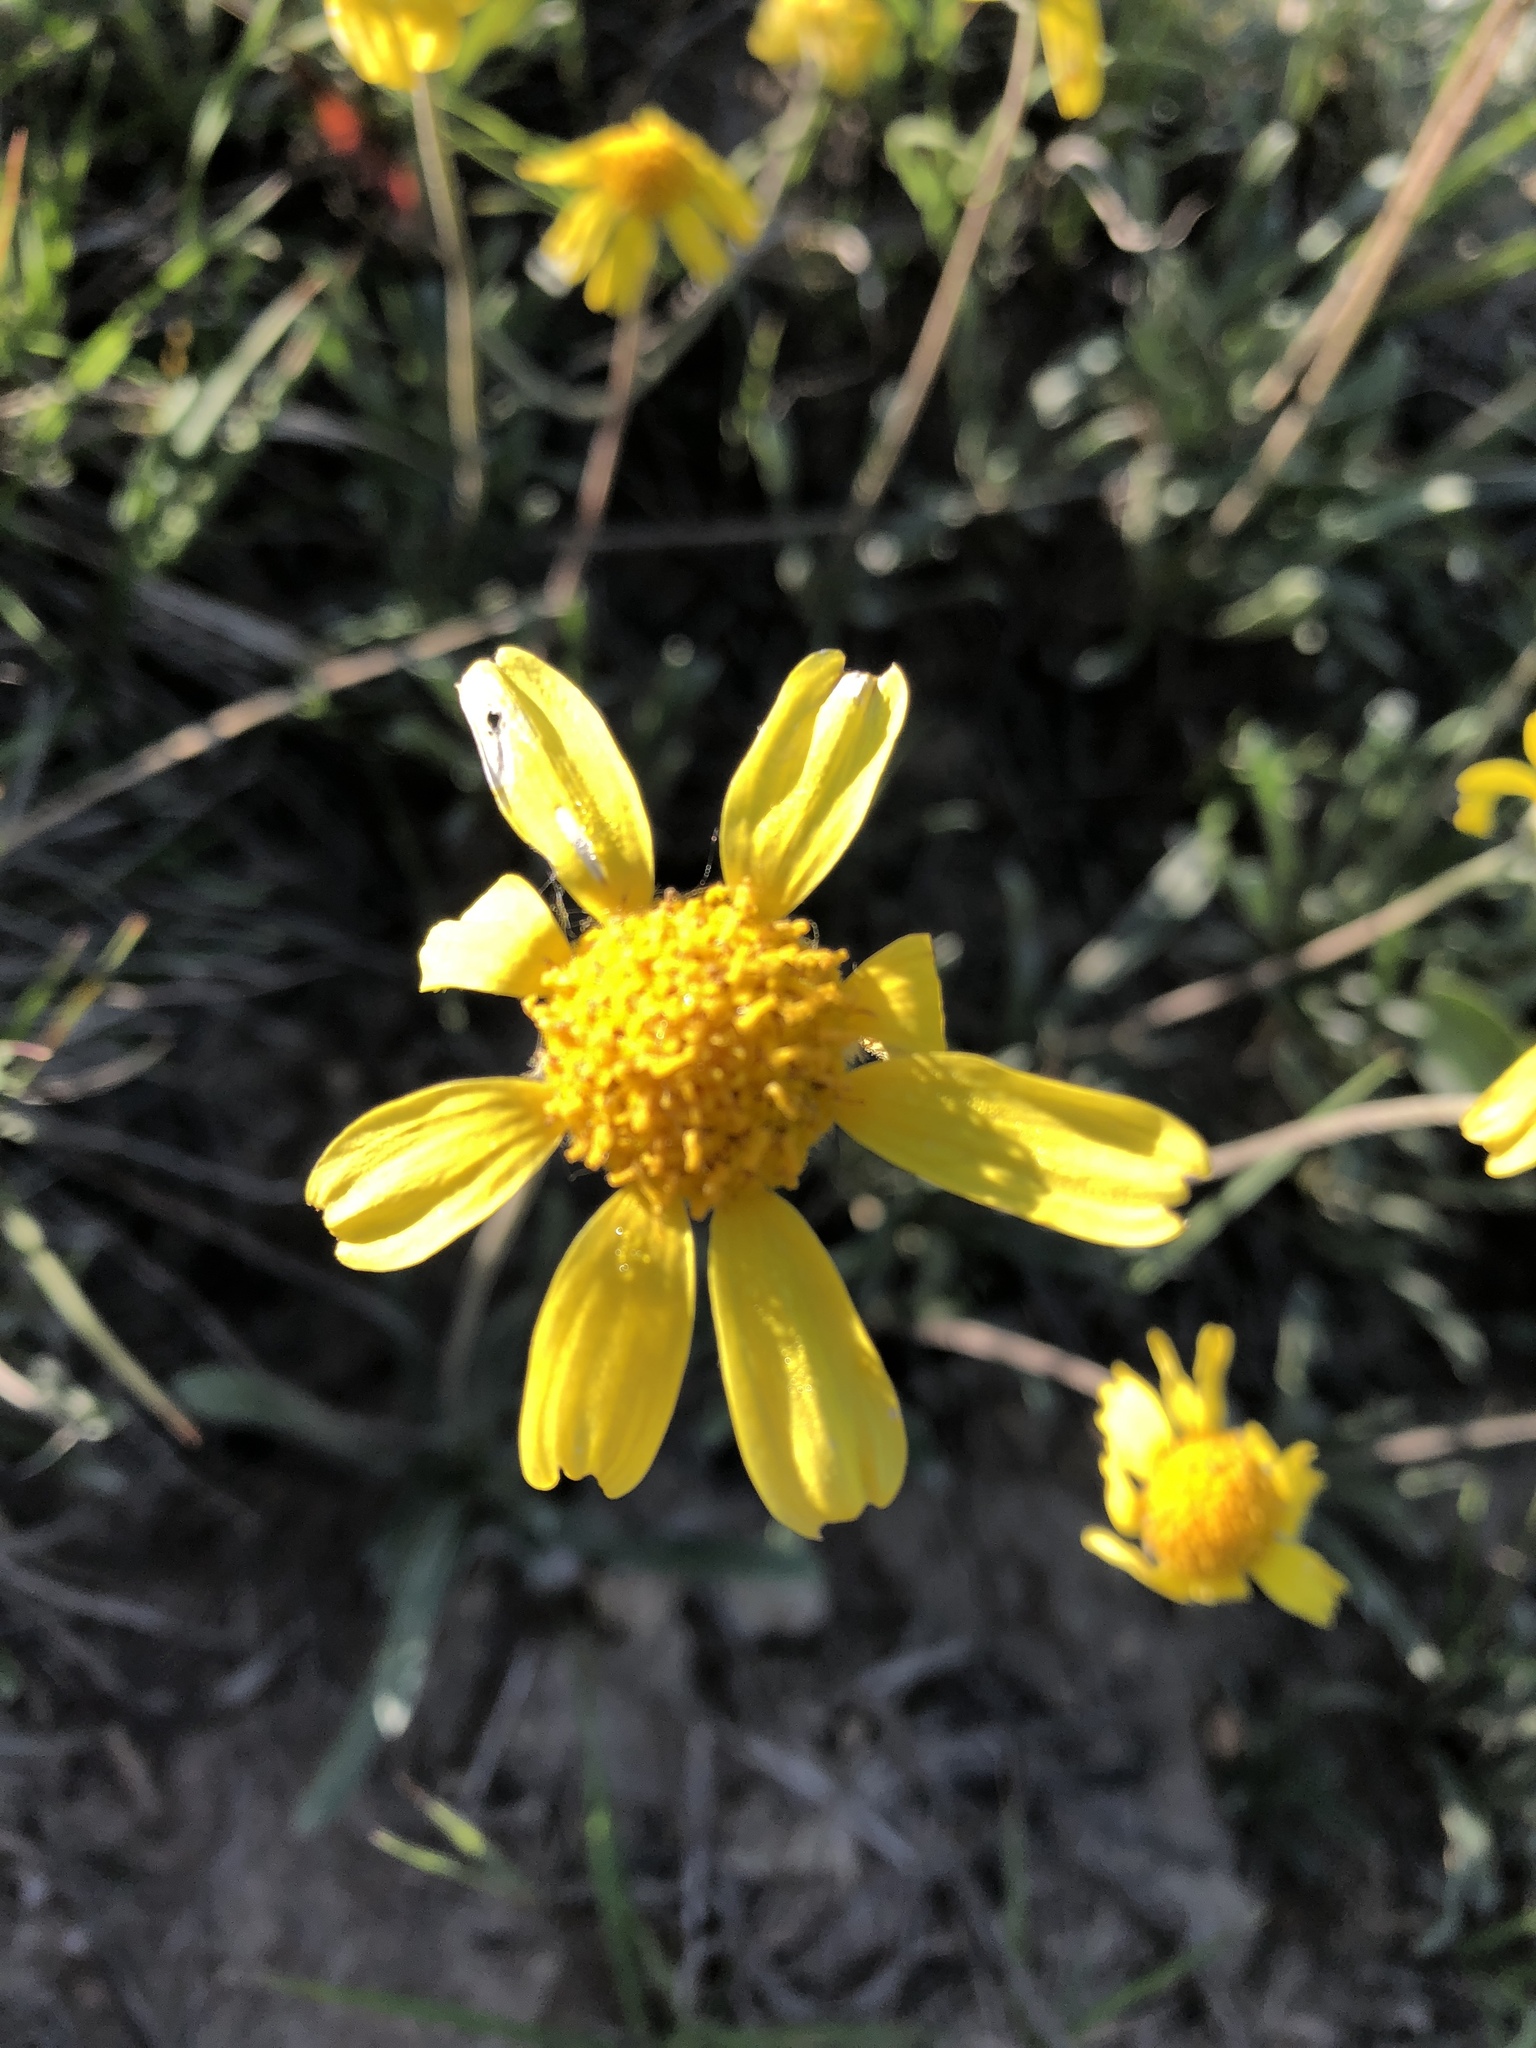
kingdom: Plantae
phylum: Tracheophyta
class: Magnoliopsida
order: Asterales
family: Asteraceae
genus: Tetraneuris
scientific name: Tetraneuris acaulis
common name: Butte marigold
